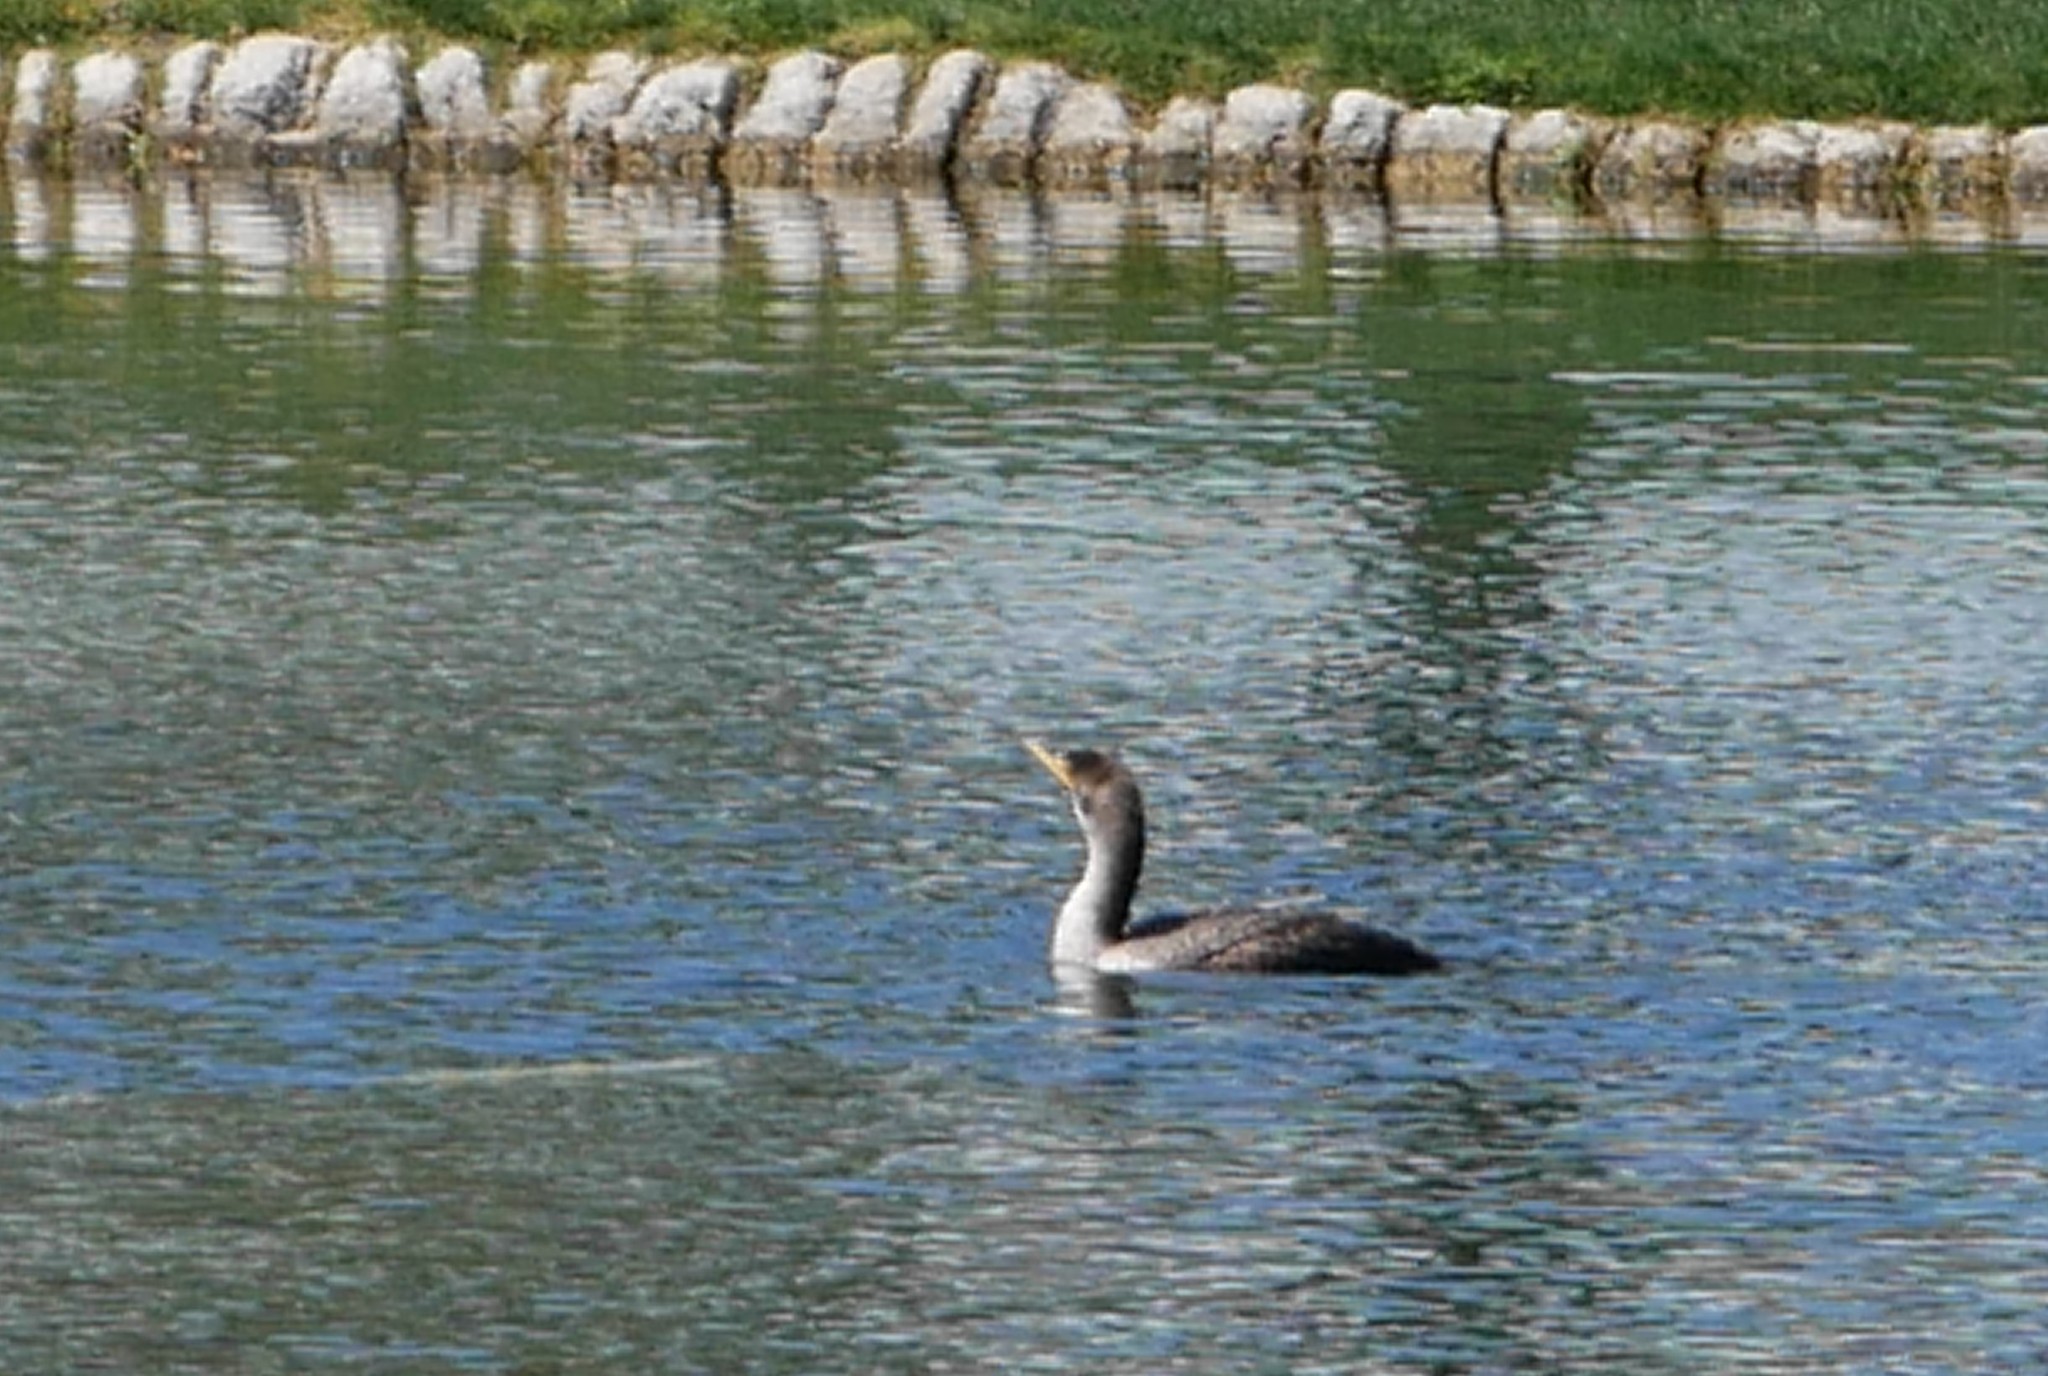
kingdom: Animalia
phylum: Chordata
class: Aves
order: Suliformes
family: Phalacrocoracidae
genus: Phalacrocorax
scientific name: Phalacrocorax auritus
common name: Double-crested cormorant
